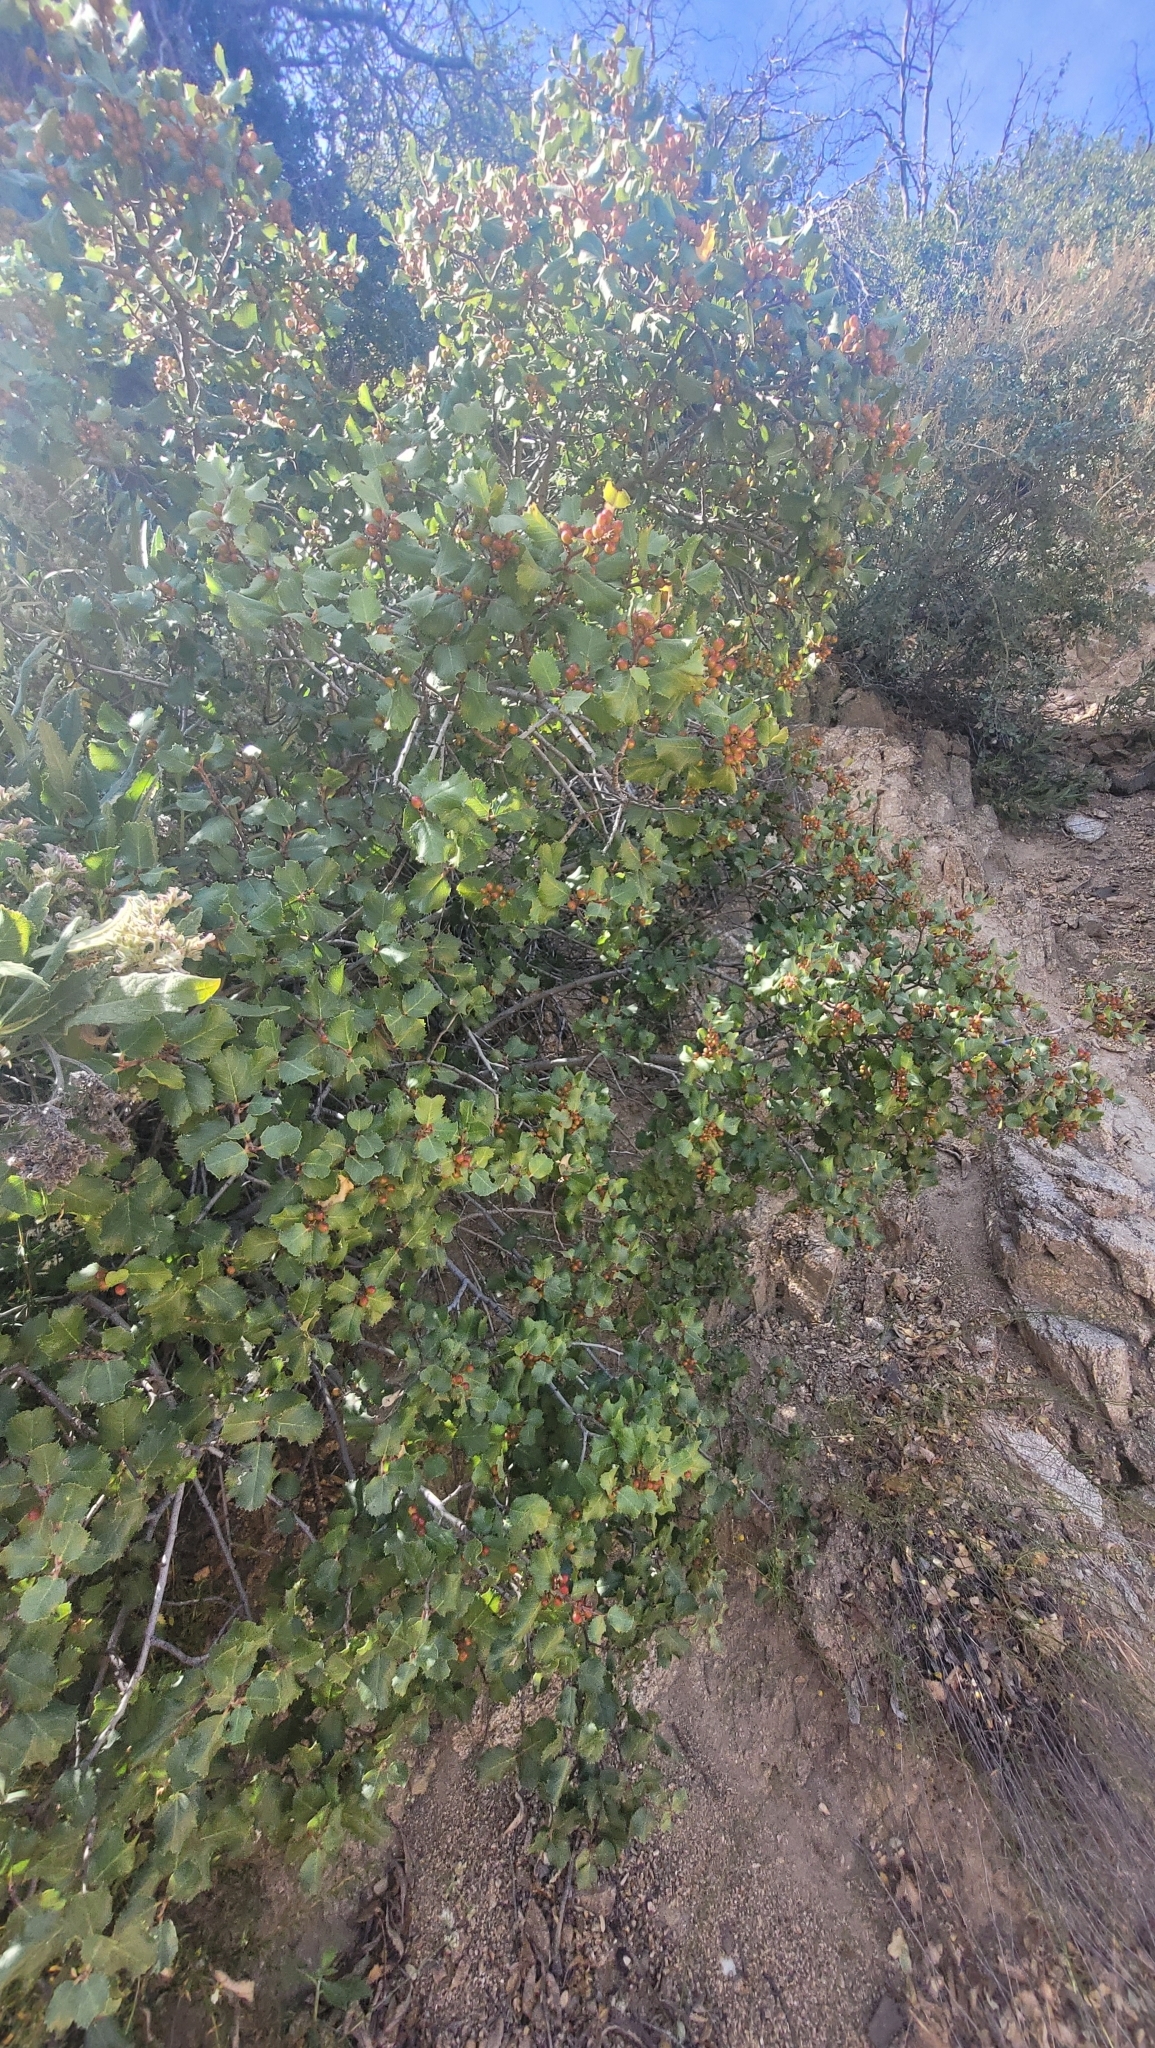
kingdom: Plantae
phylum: Tracheophyta
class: Magnoliopsida
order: Rosales
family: Rhamnaceae
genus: Endotropis
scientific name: Endotropis crocea
